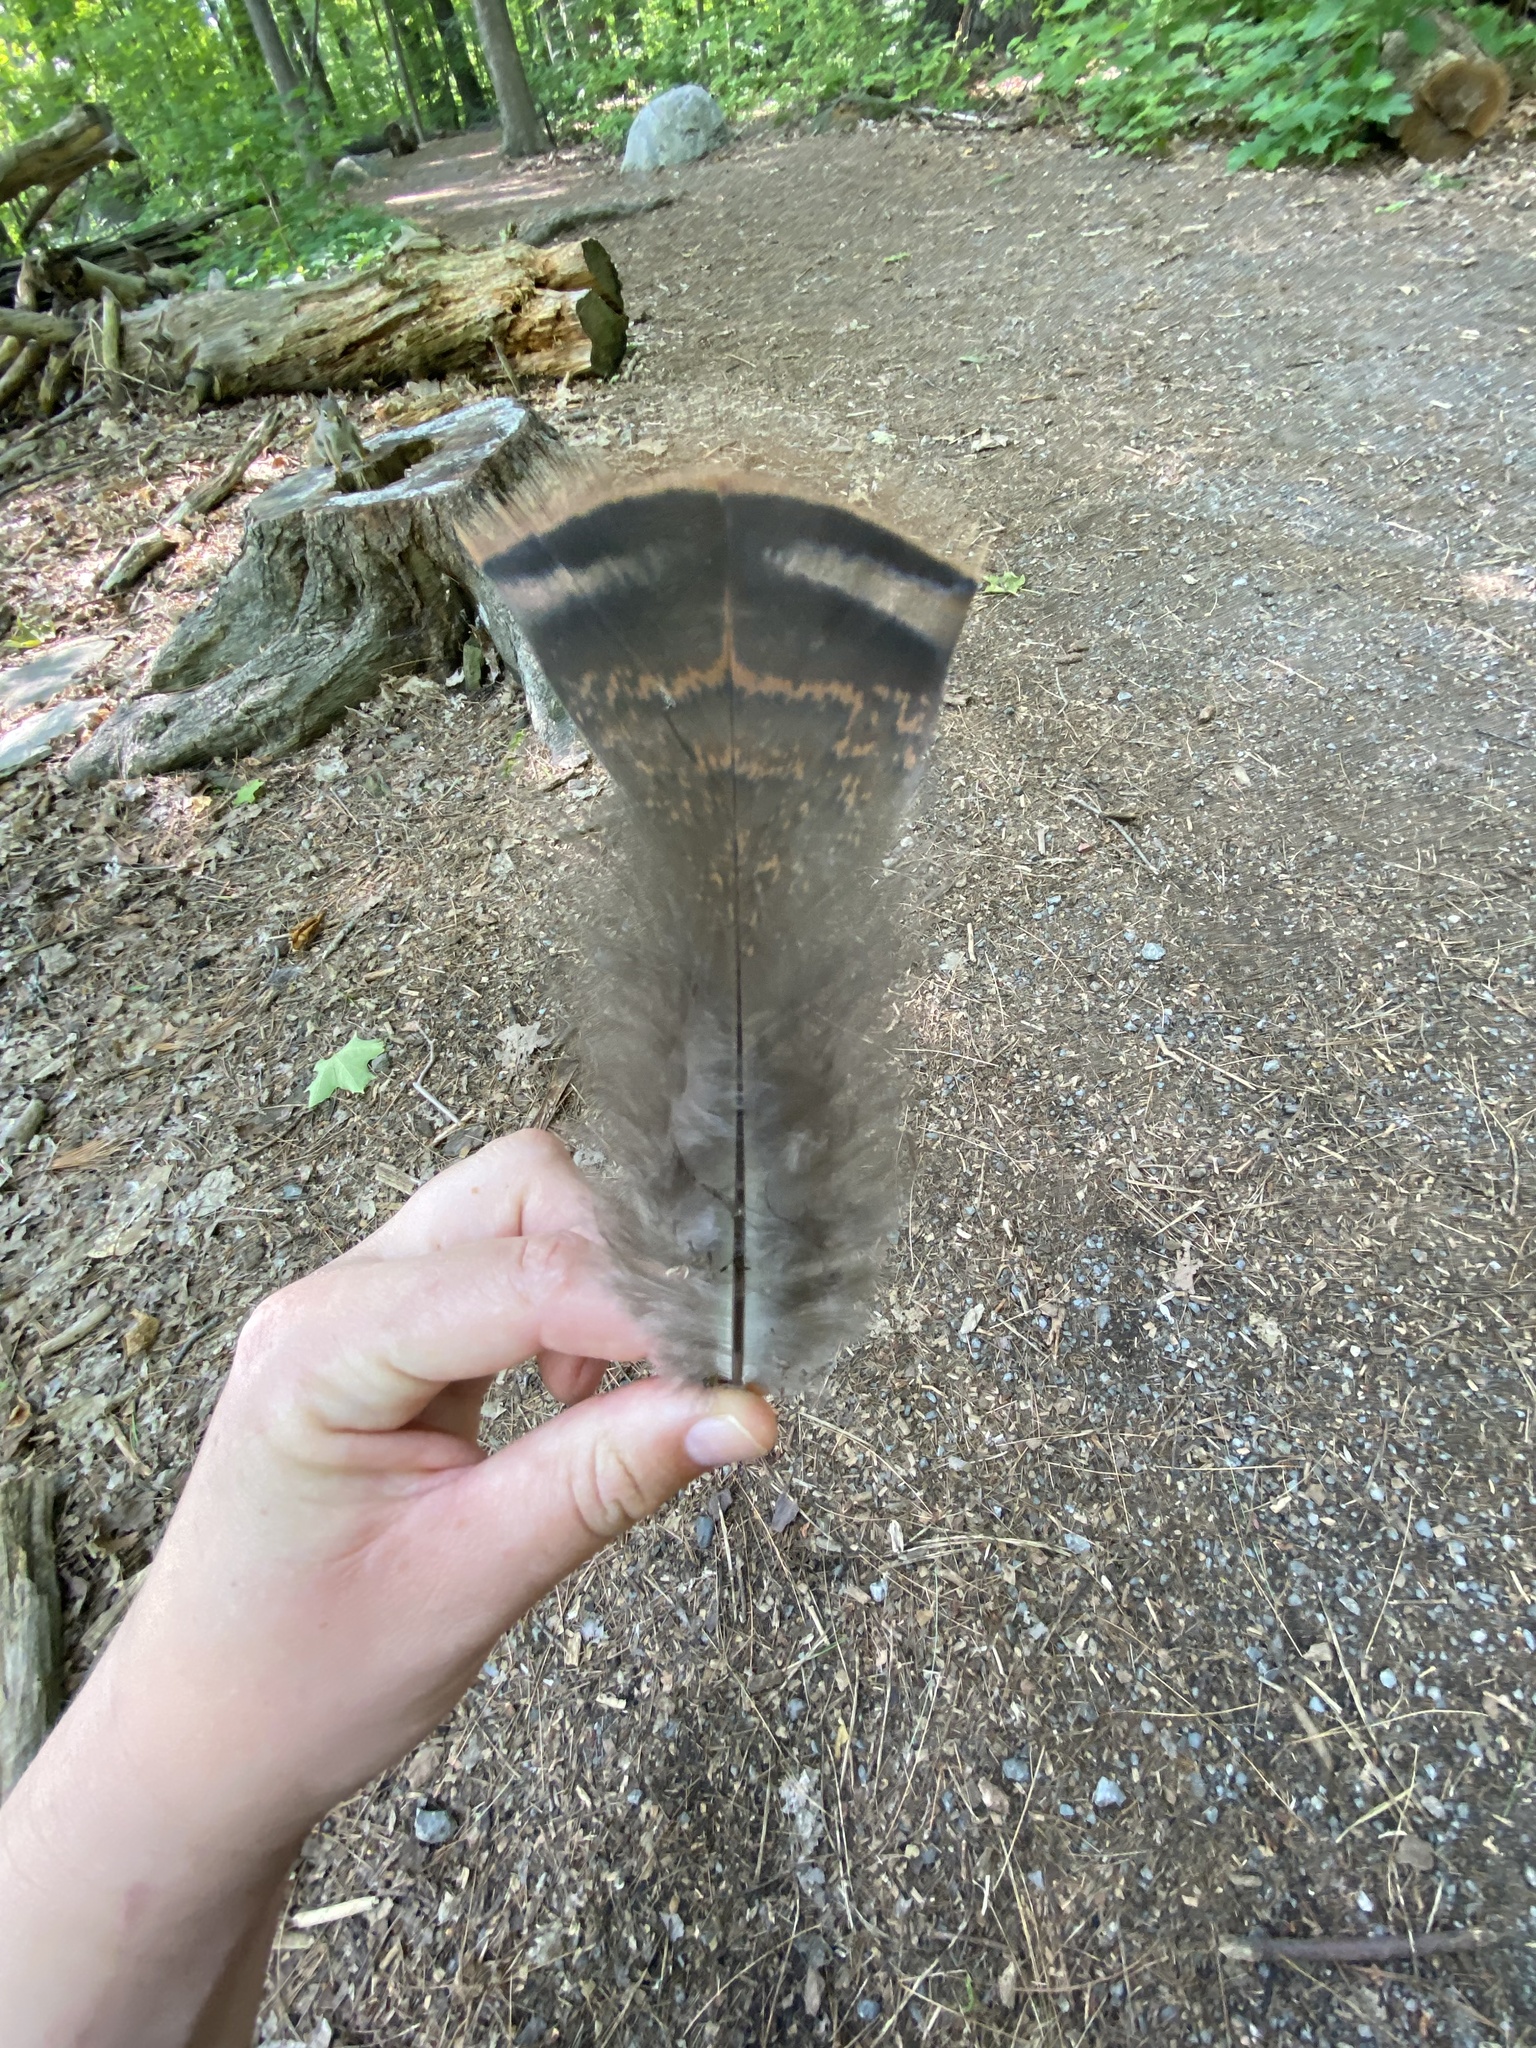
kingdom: Animalia
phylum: Chordata
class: Aves
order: Galliformes
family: Phasianidae
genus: Meleagris
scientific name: Meleagris gallopavo
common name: Wild turkey
